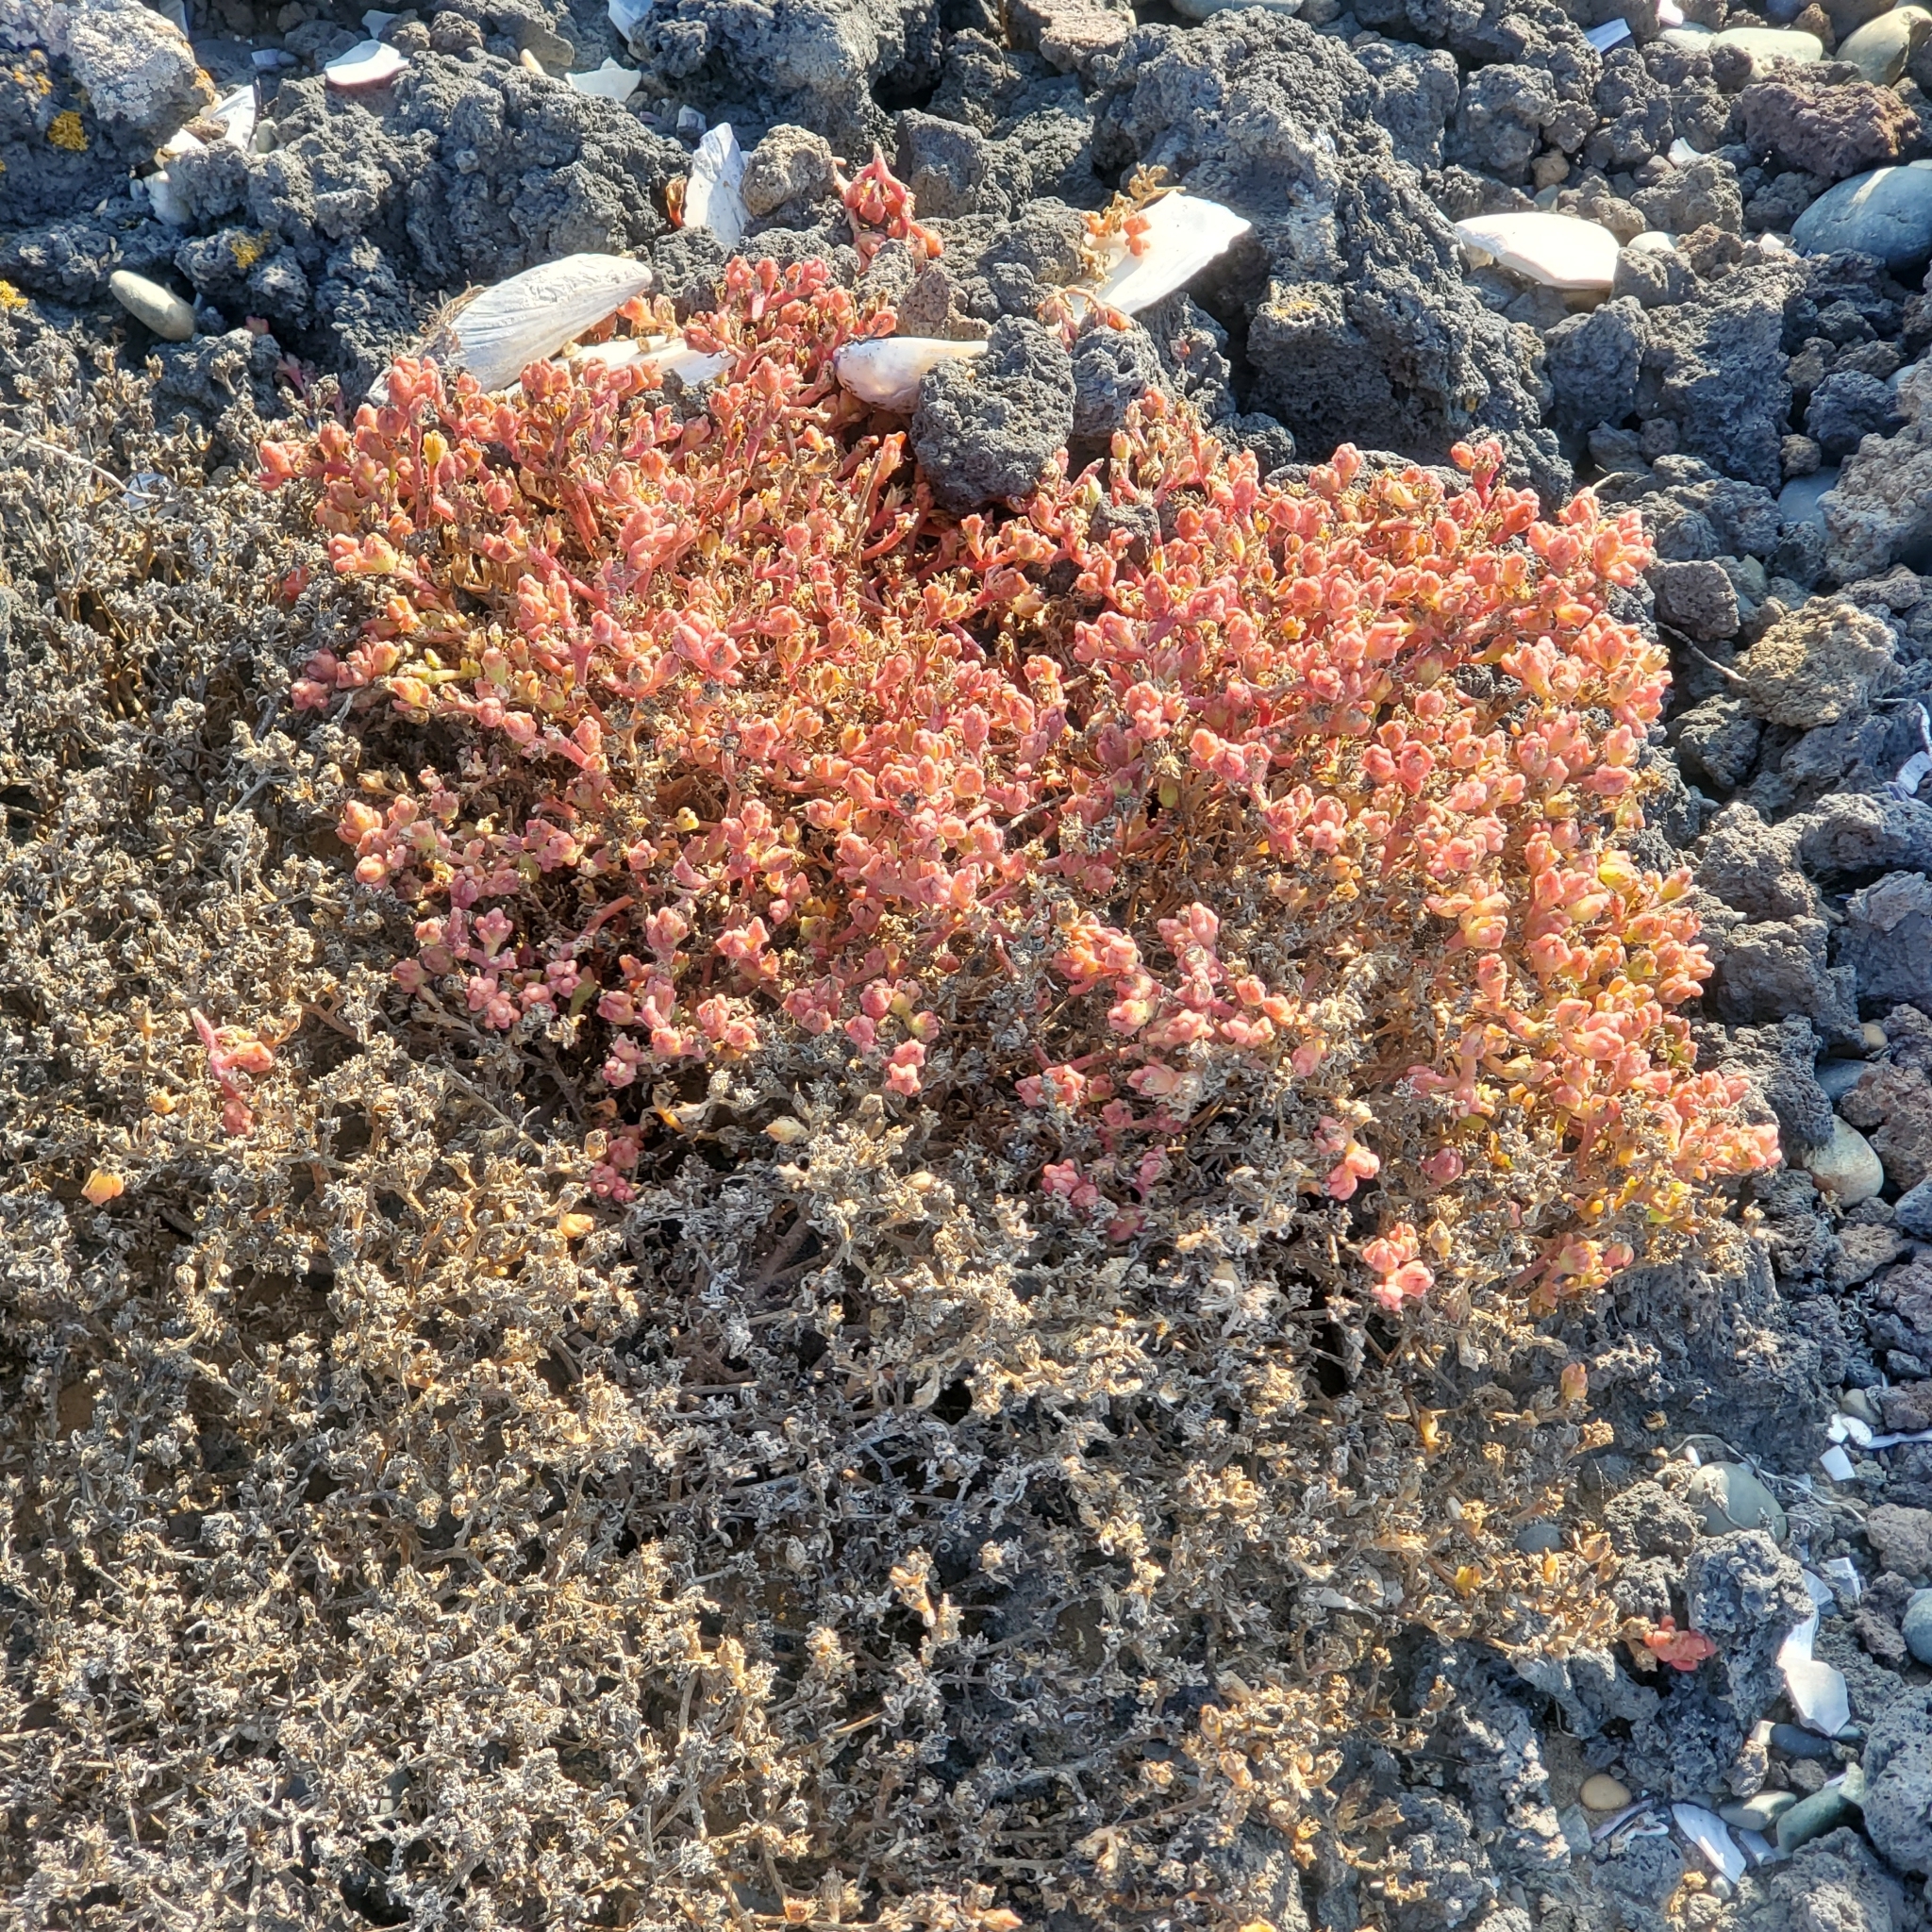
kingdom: Plantae
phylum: Tracheophyta
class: Magnoliopsida
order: Caryophyllales
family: Aizoaceae
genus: Mesembryanthemum
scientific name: Mesembryanthemum nodiflorum
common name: Slenderleaf iceplant
